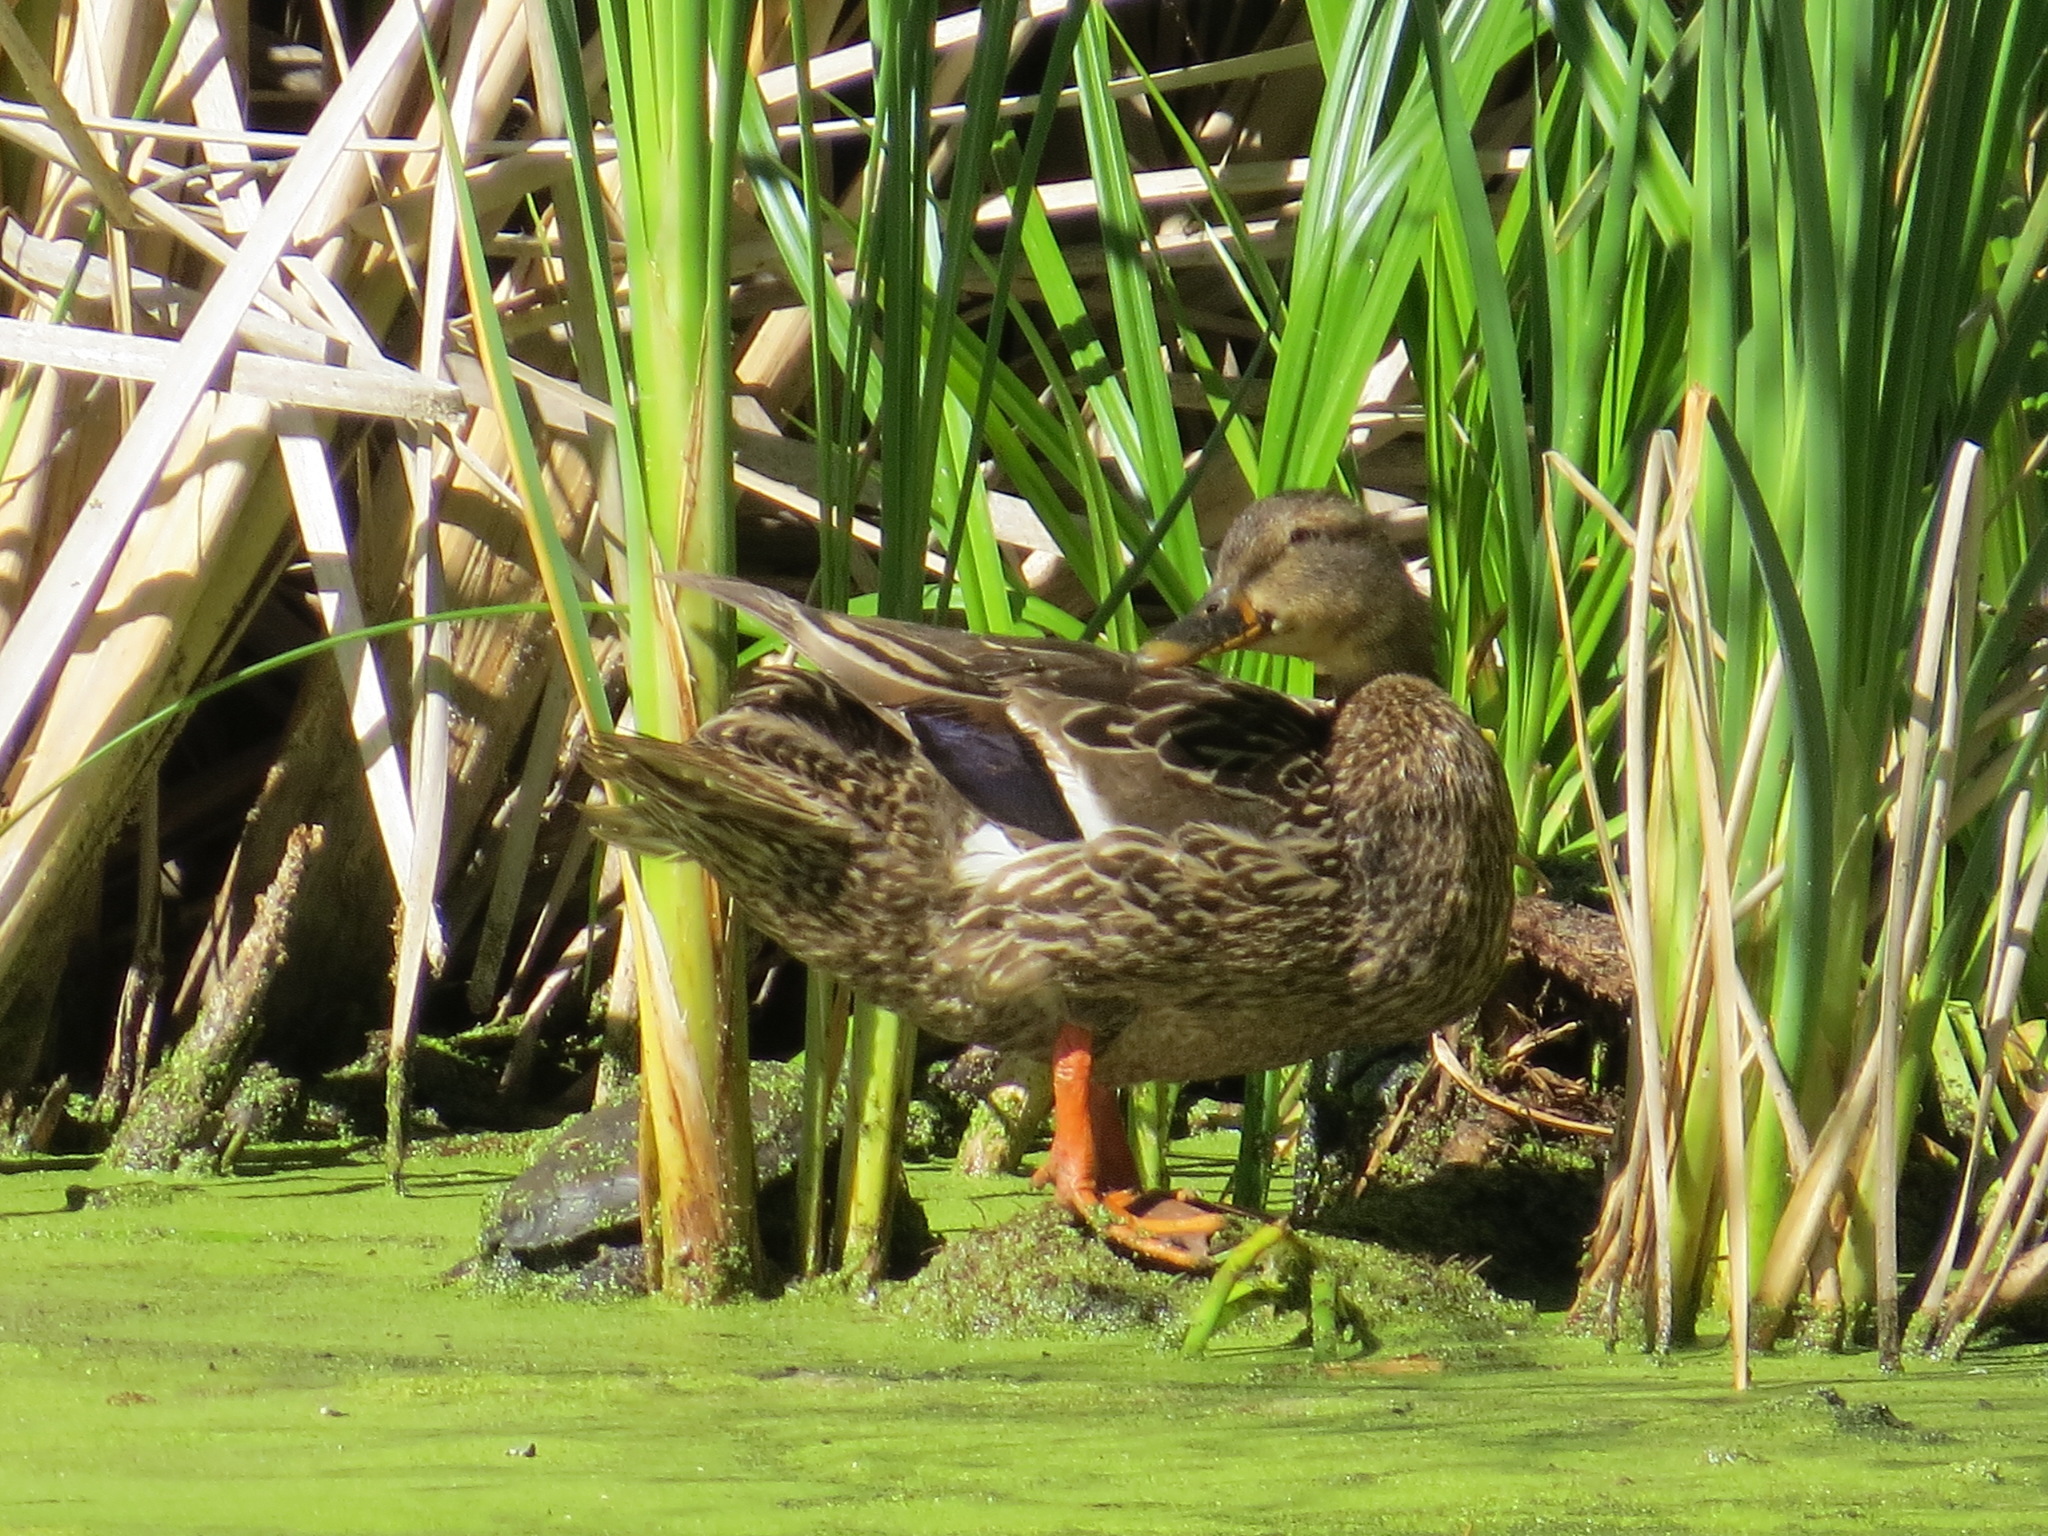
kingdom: Animalia
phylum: Chordata
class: Aves
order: Anseriformes
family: Anatidae
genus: Anas
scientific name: Anas platyrhynchos
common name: Mallard
